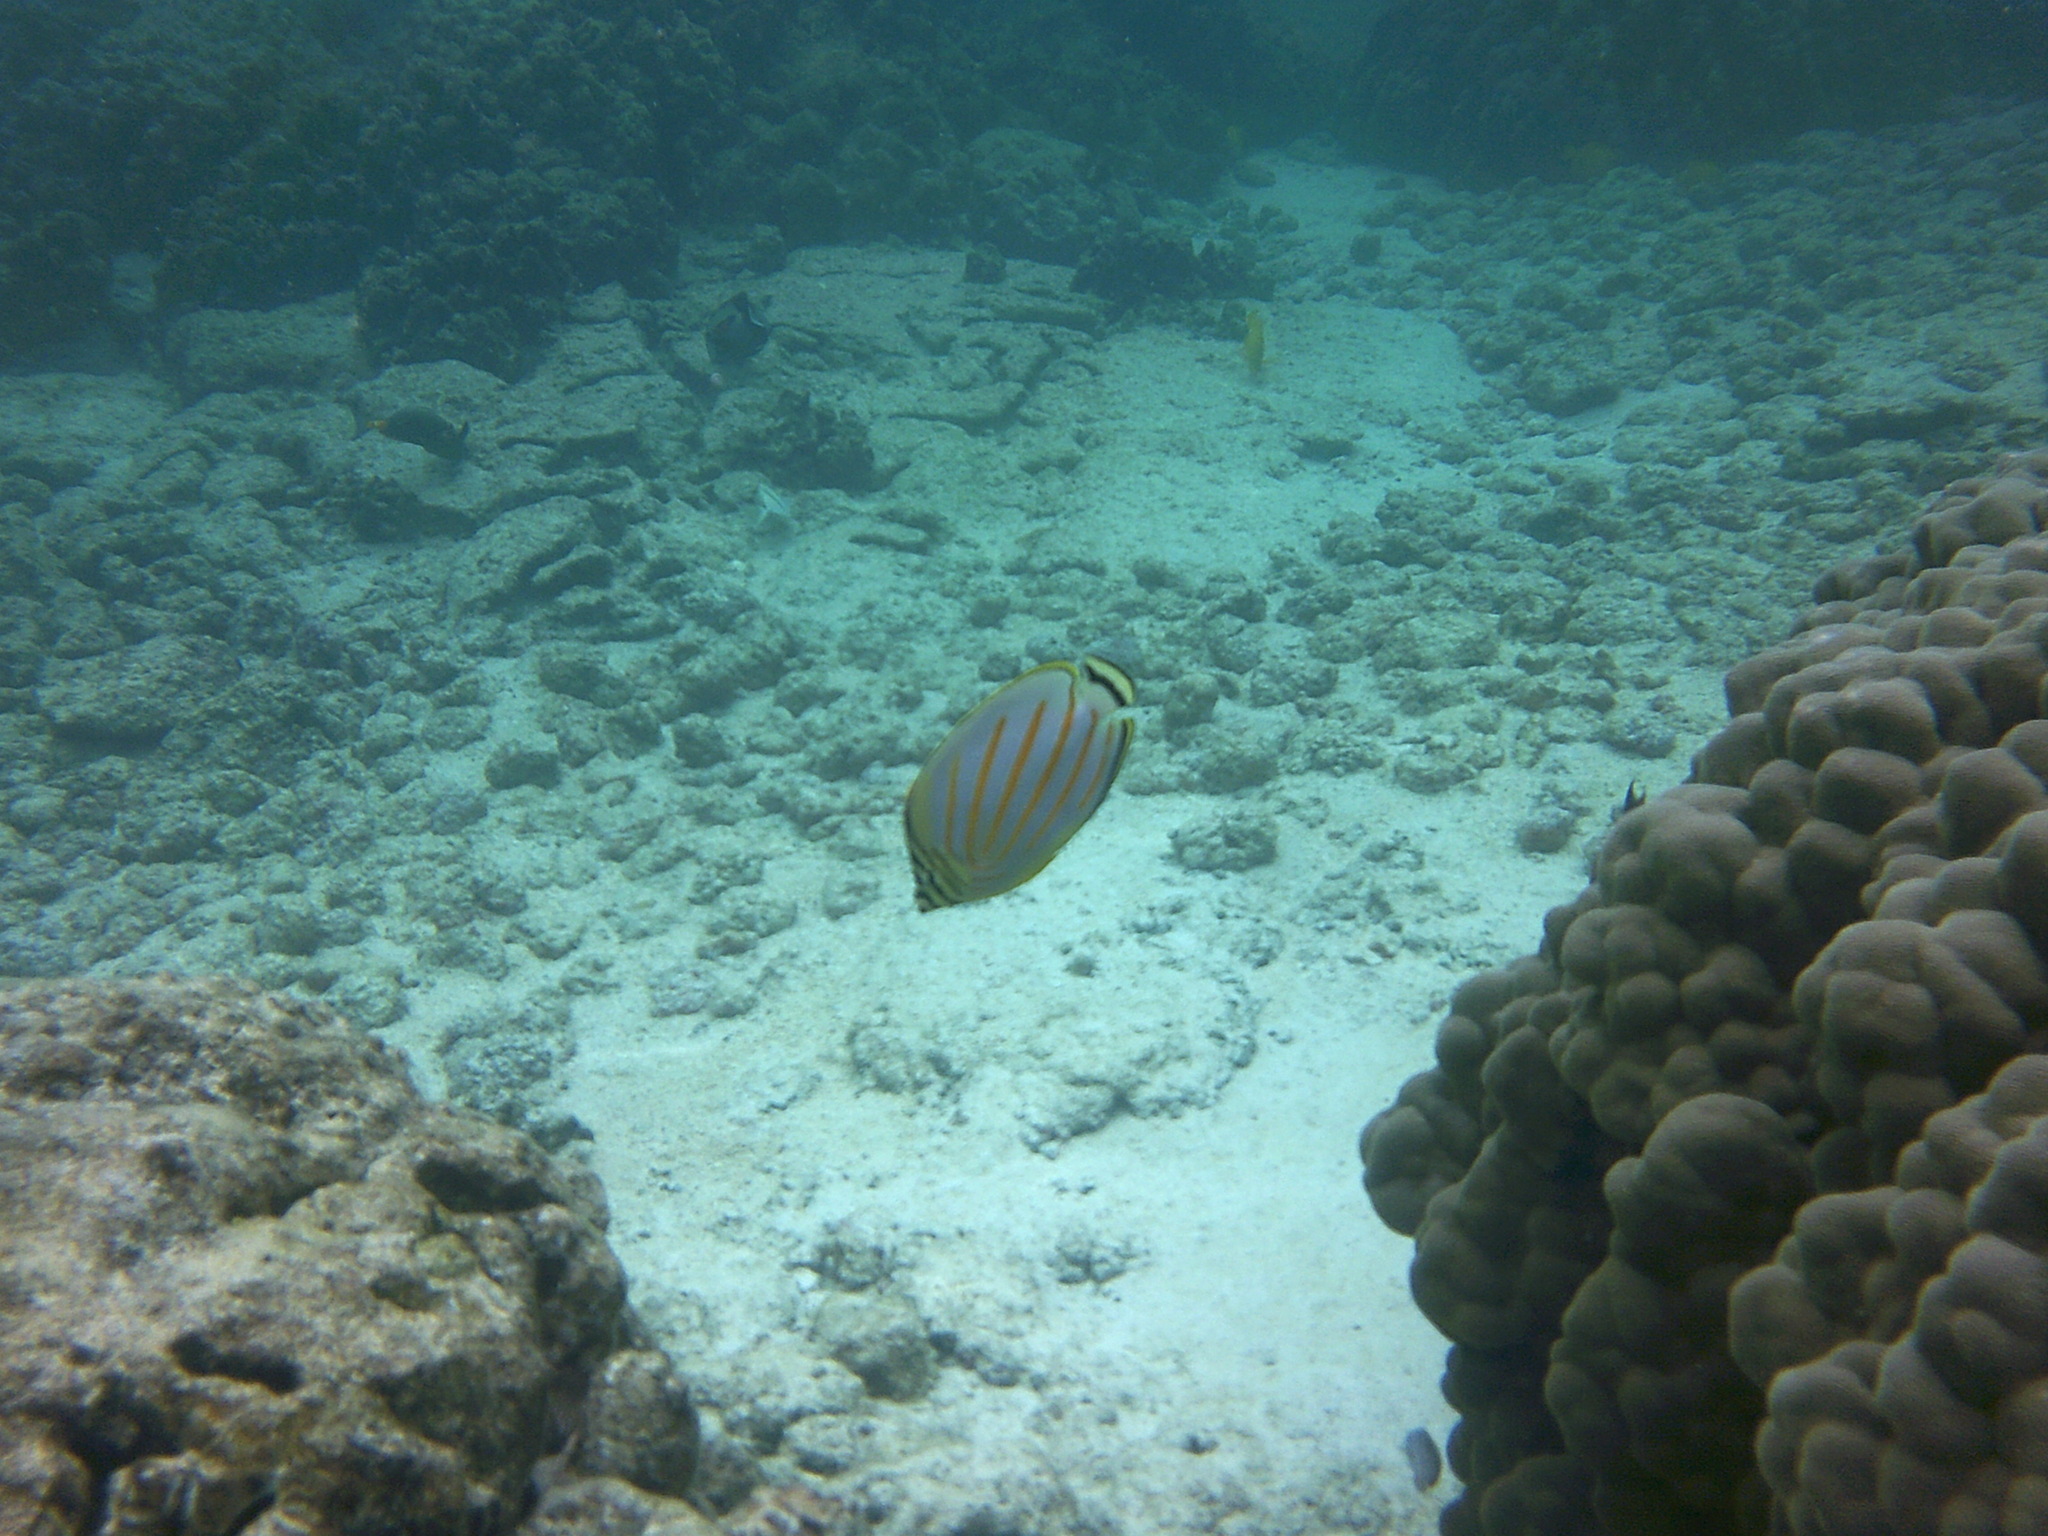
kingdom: Animalia
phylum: Chordata
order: Perciformes
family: Chaetodontidae
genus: Chaetodon
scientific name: Chaetodon ornatissimus
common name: Ornate butterflyfish
